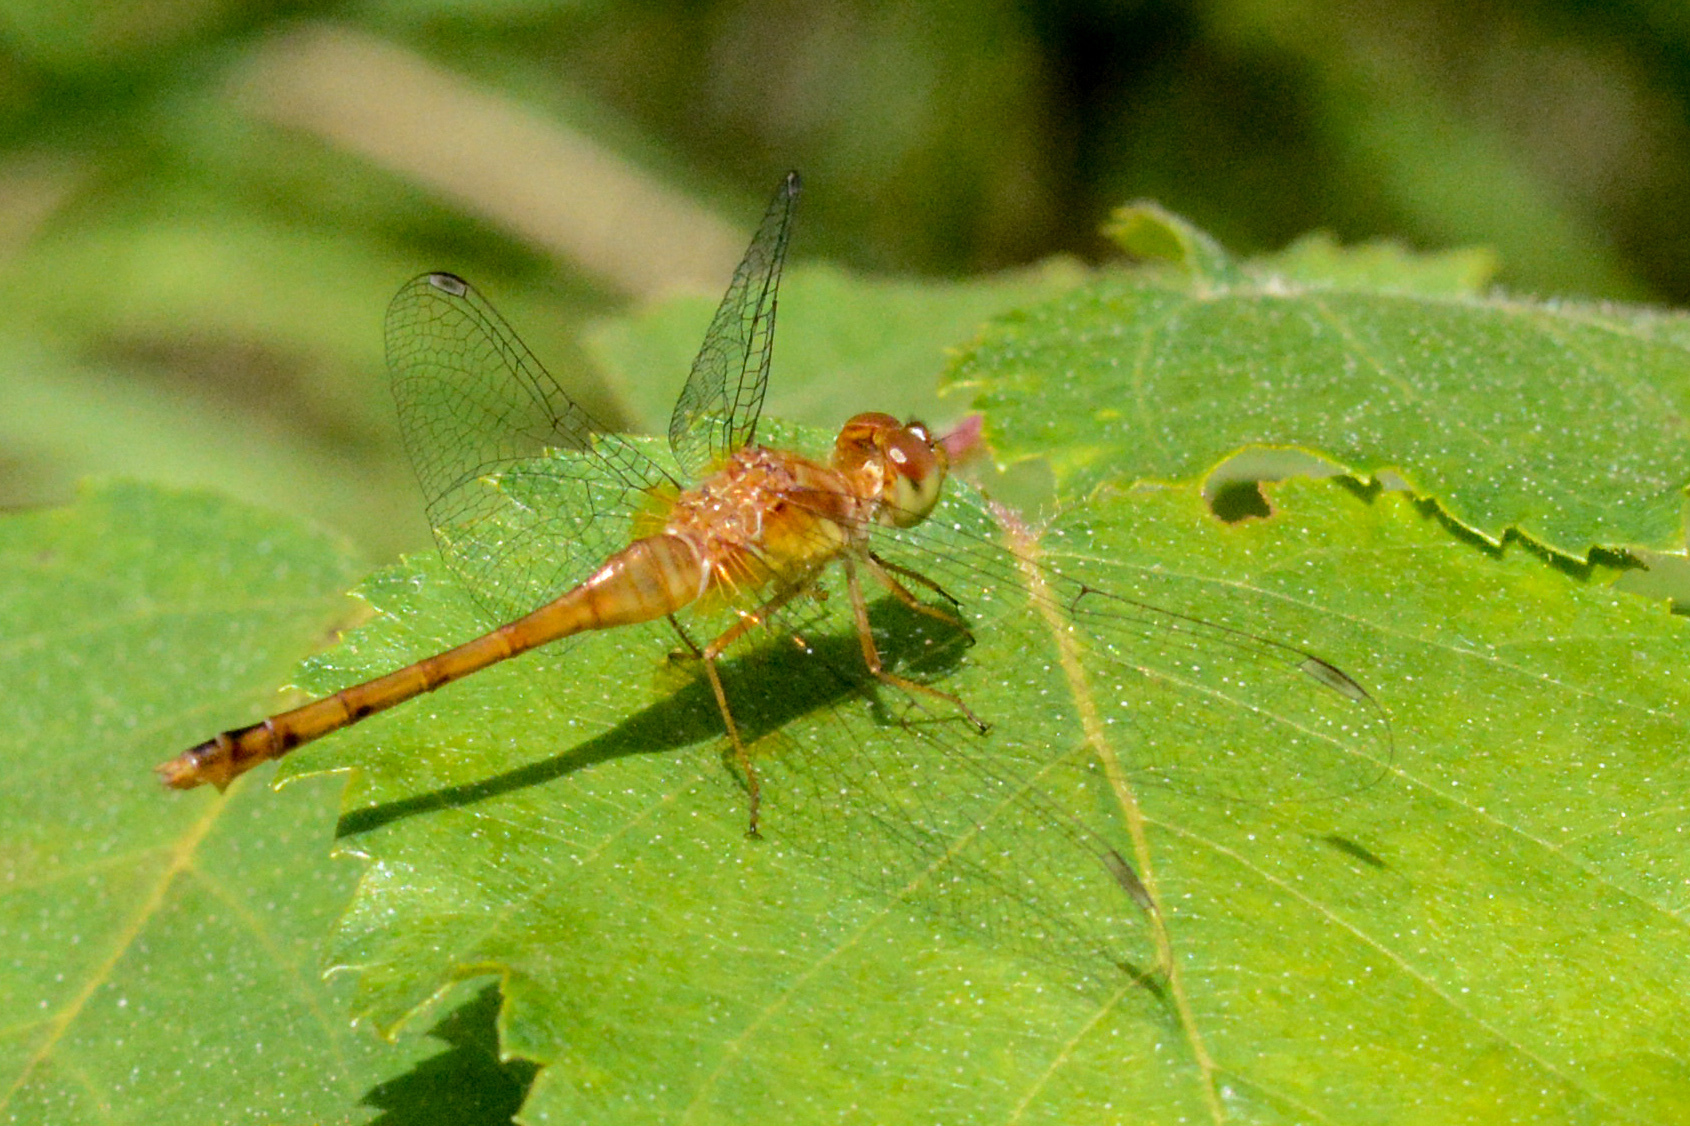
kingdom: Animalia
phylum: Arthropoda
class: Insecta
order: Odonata
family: Libellulidae
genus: Sympetrum
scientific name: Sympetrum vicinum
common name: Autumn meadowhawk
